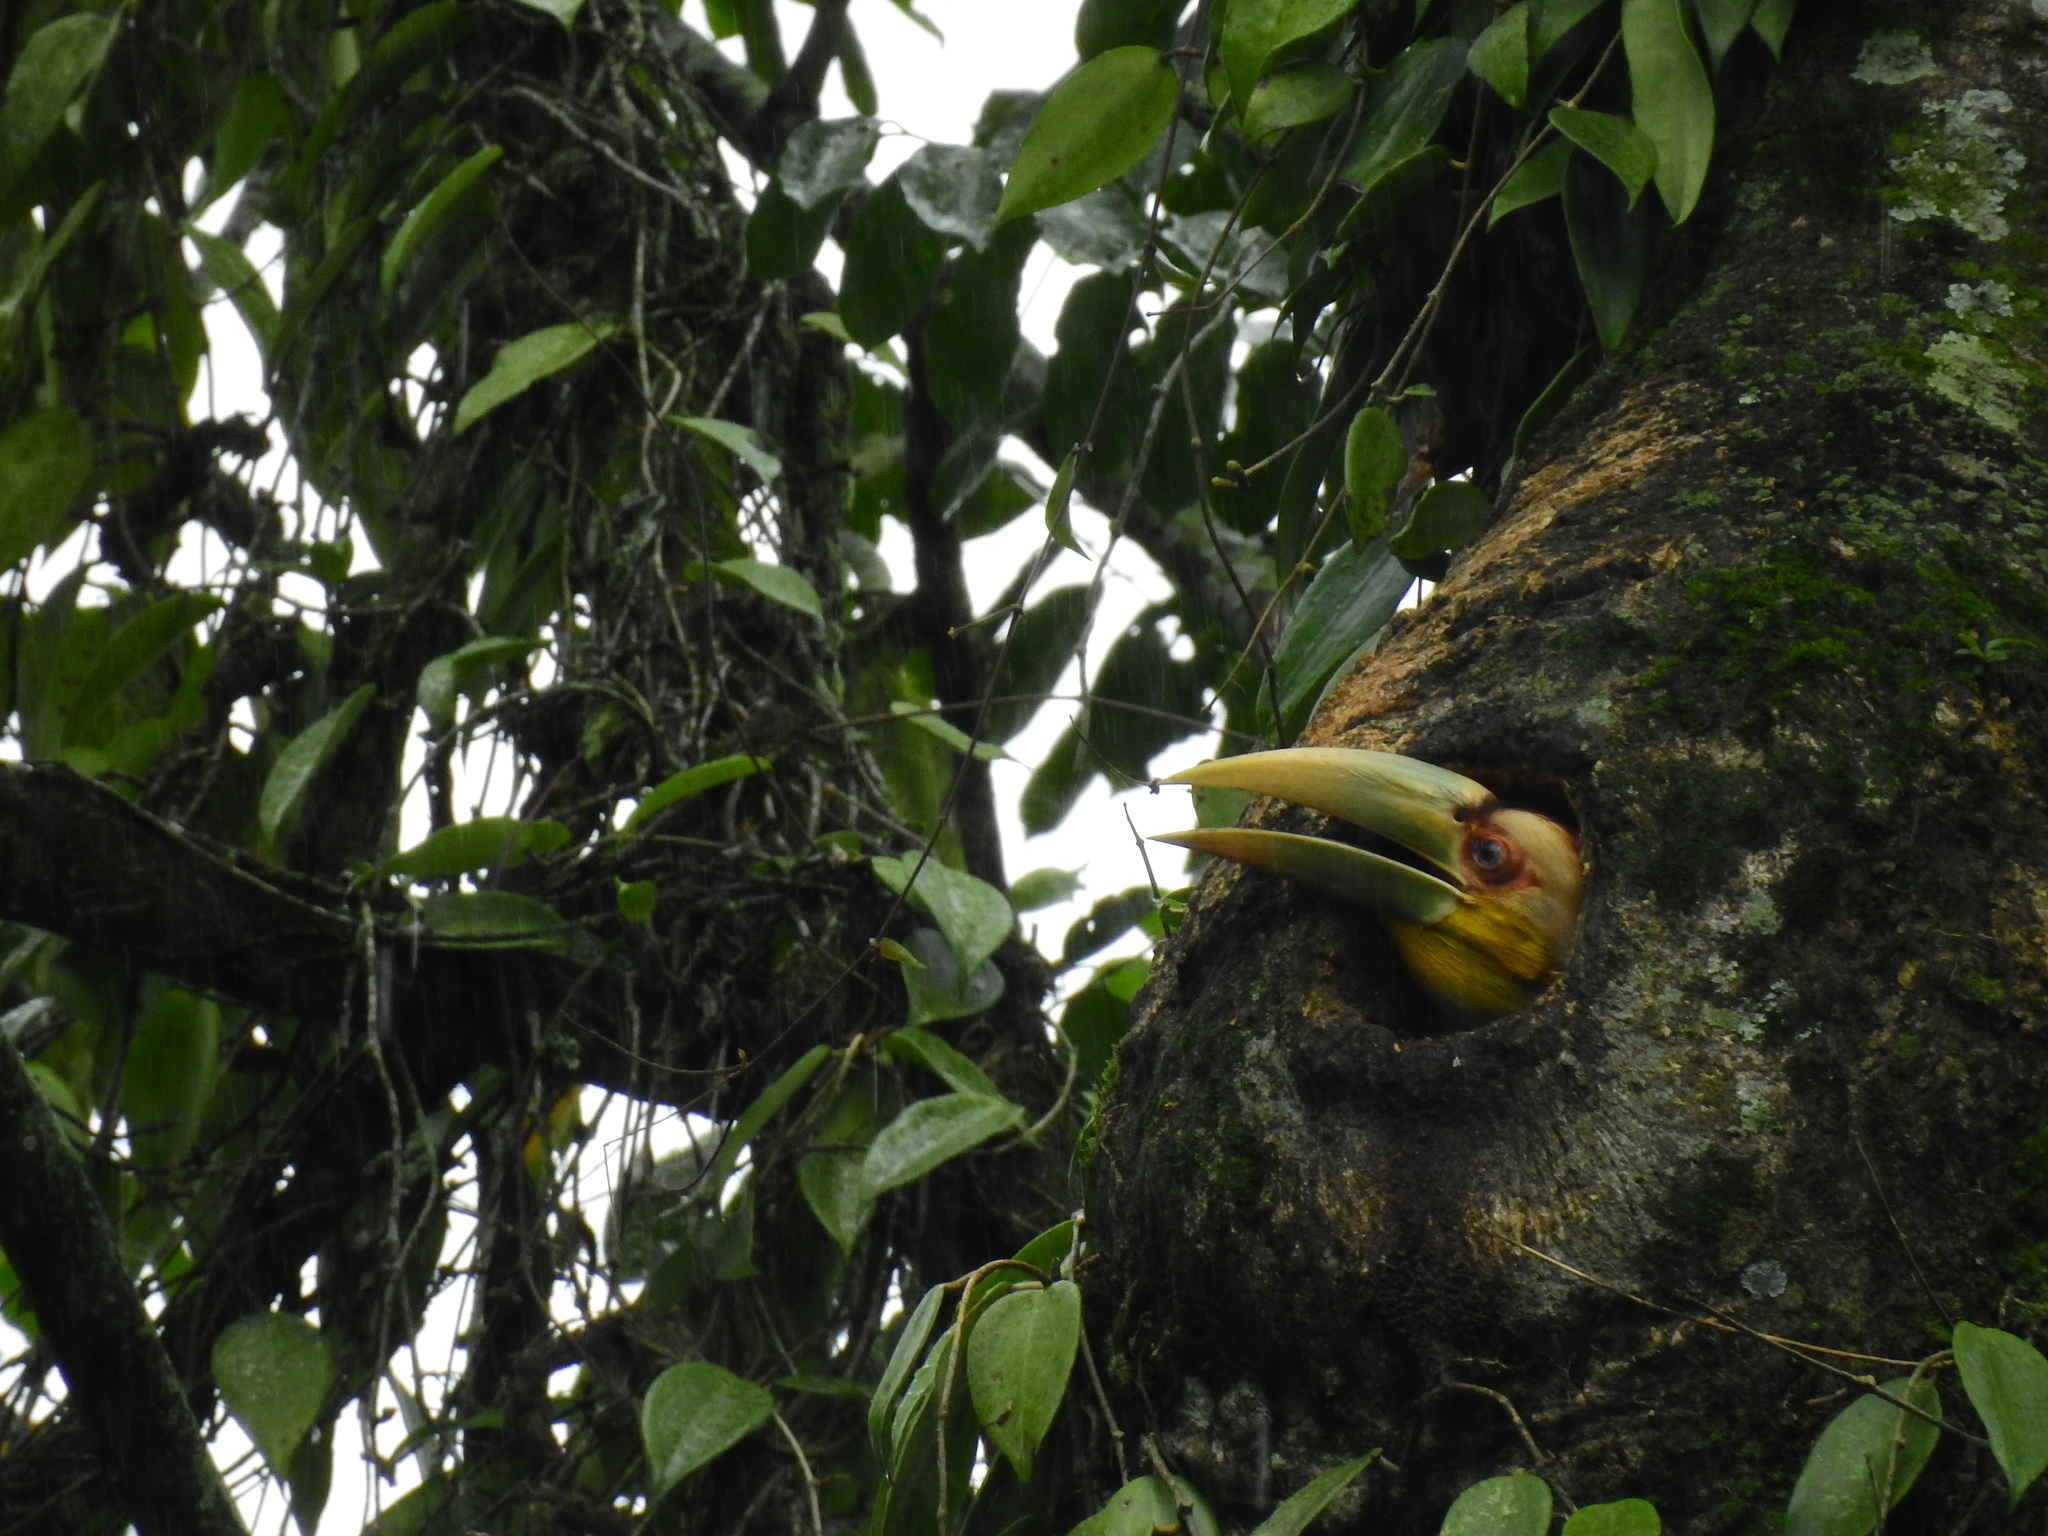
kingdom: Animalia
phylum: Chordata
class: Aves
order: Bucerotiformes
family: Bucerotidae
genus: Rhyticeros
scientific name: Rhyticeros undulatus
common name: Wreathed hornbill
